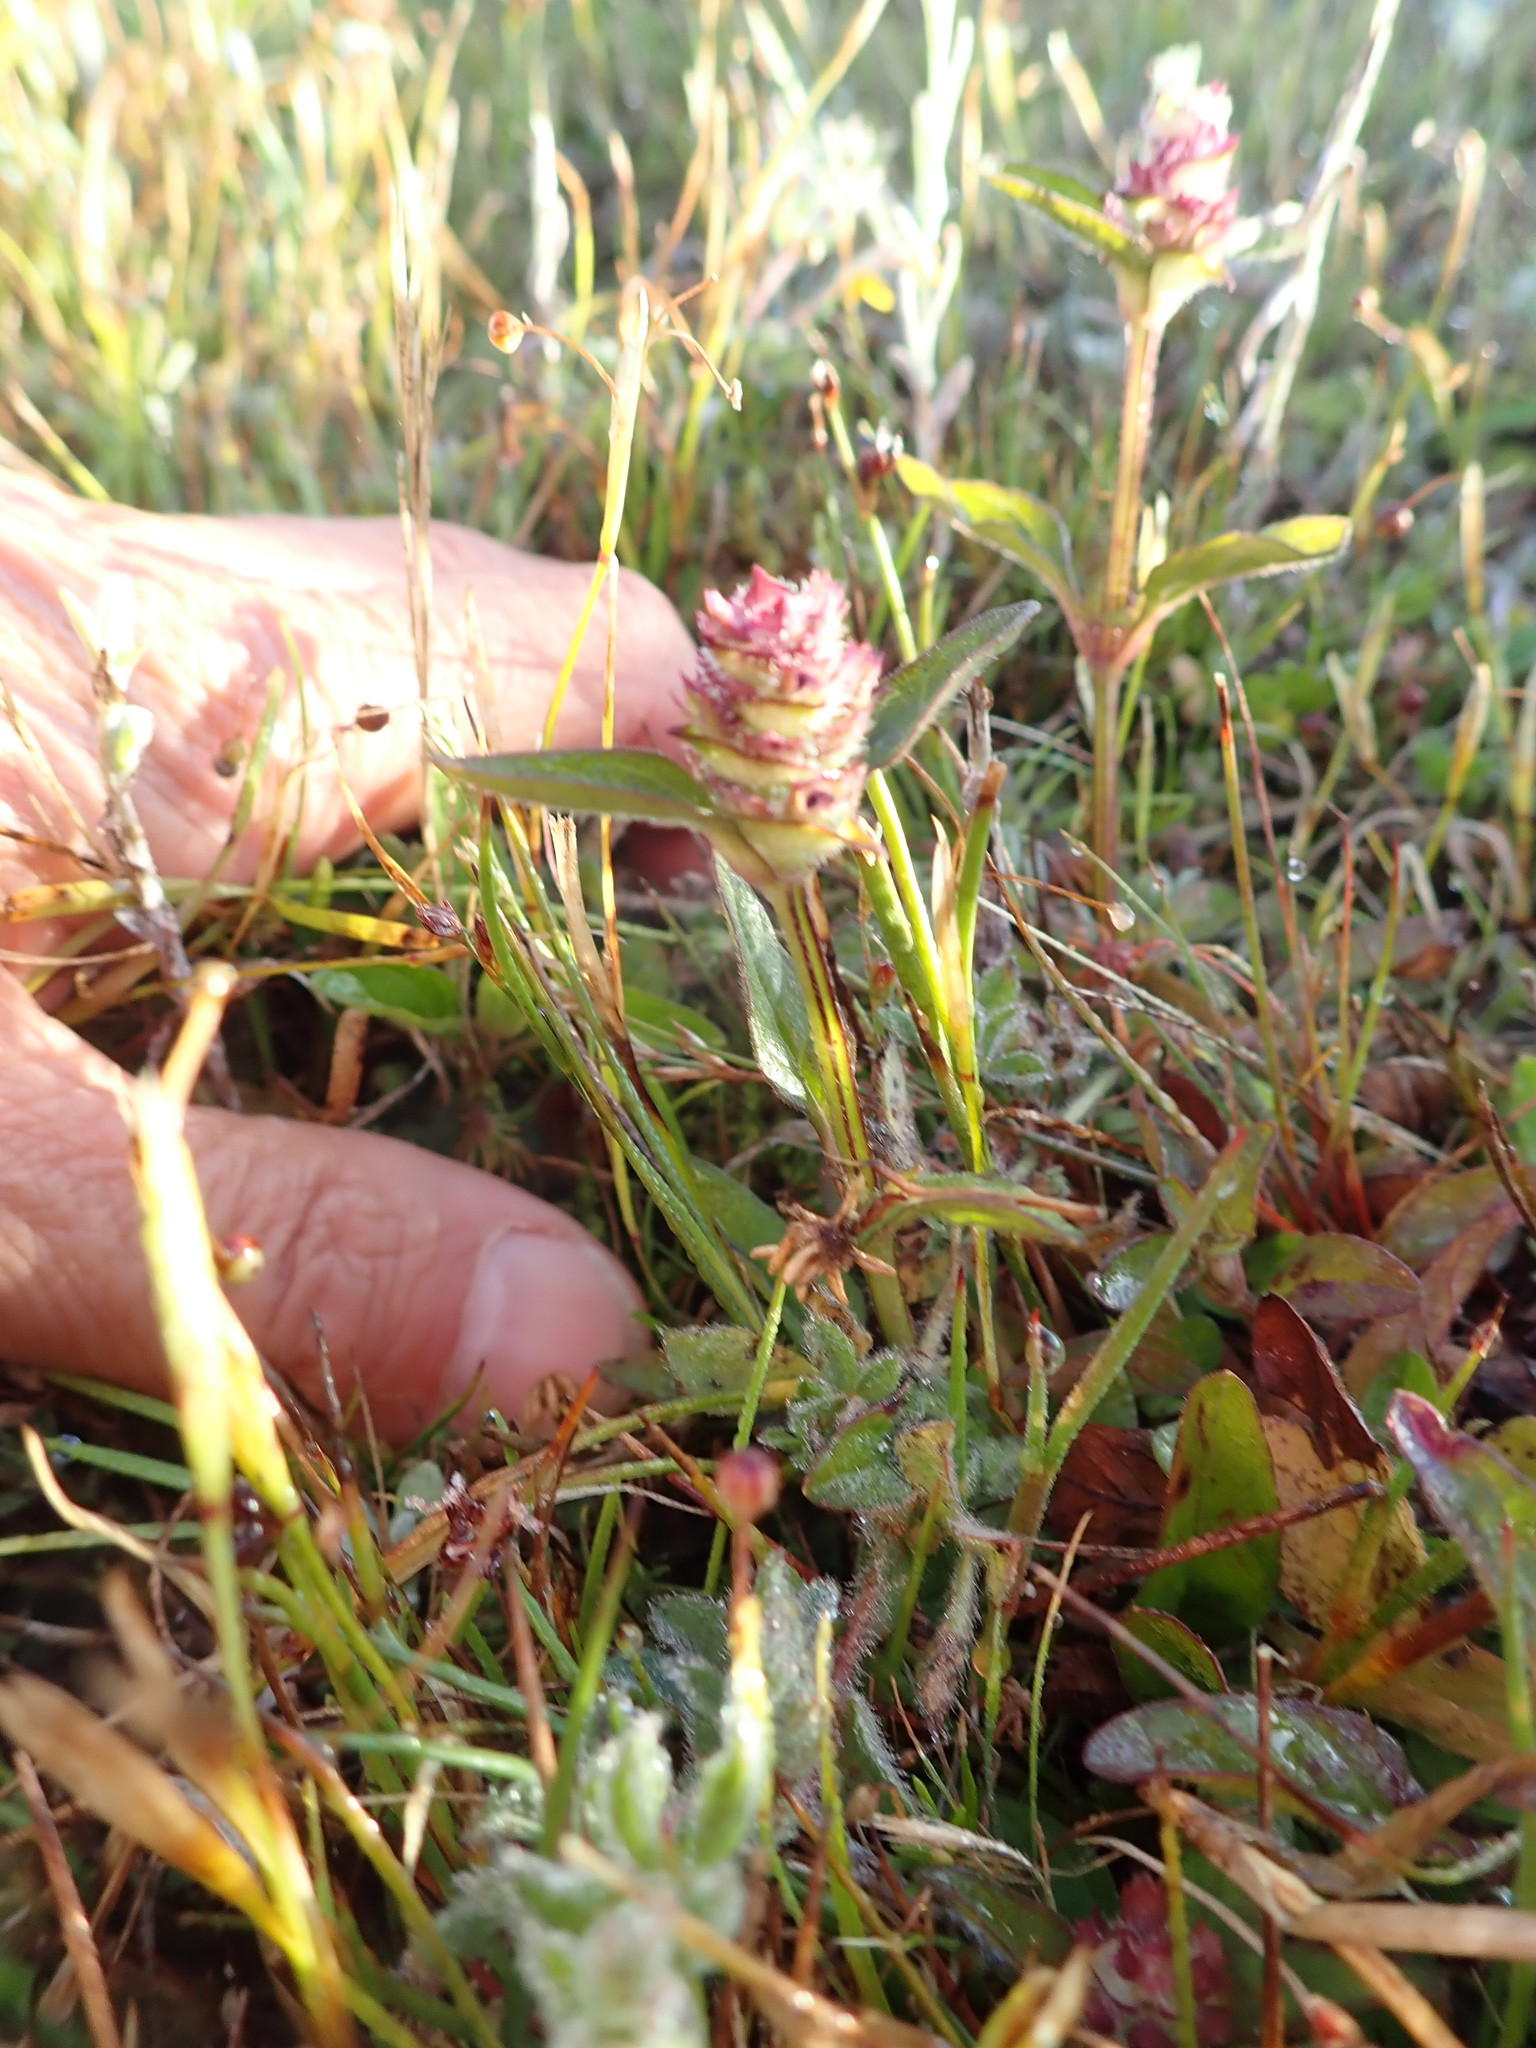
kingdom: Plantae
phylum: Tracheophyta
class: Magnoliopsida
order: Lamiales
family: Lamiaceae
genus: Prunella
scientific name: Prunella vulgaris
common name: Heal-all
